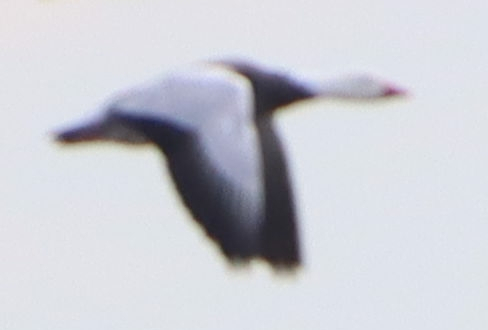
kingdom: Animalia
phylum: Chordata
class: Aves
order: Anseriformes
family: Anatidae
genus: Anser
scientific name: Anser caerulescens
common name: Snow goose
